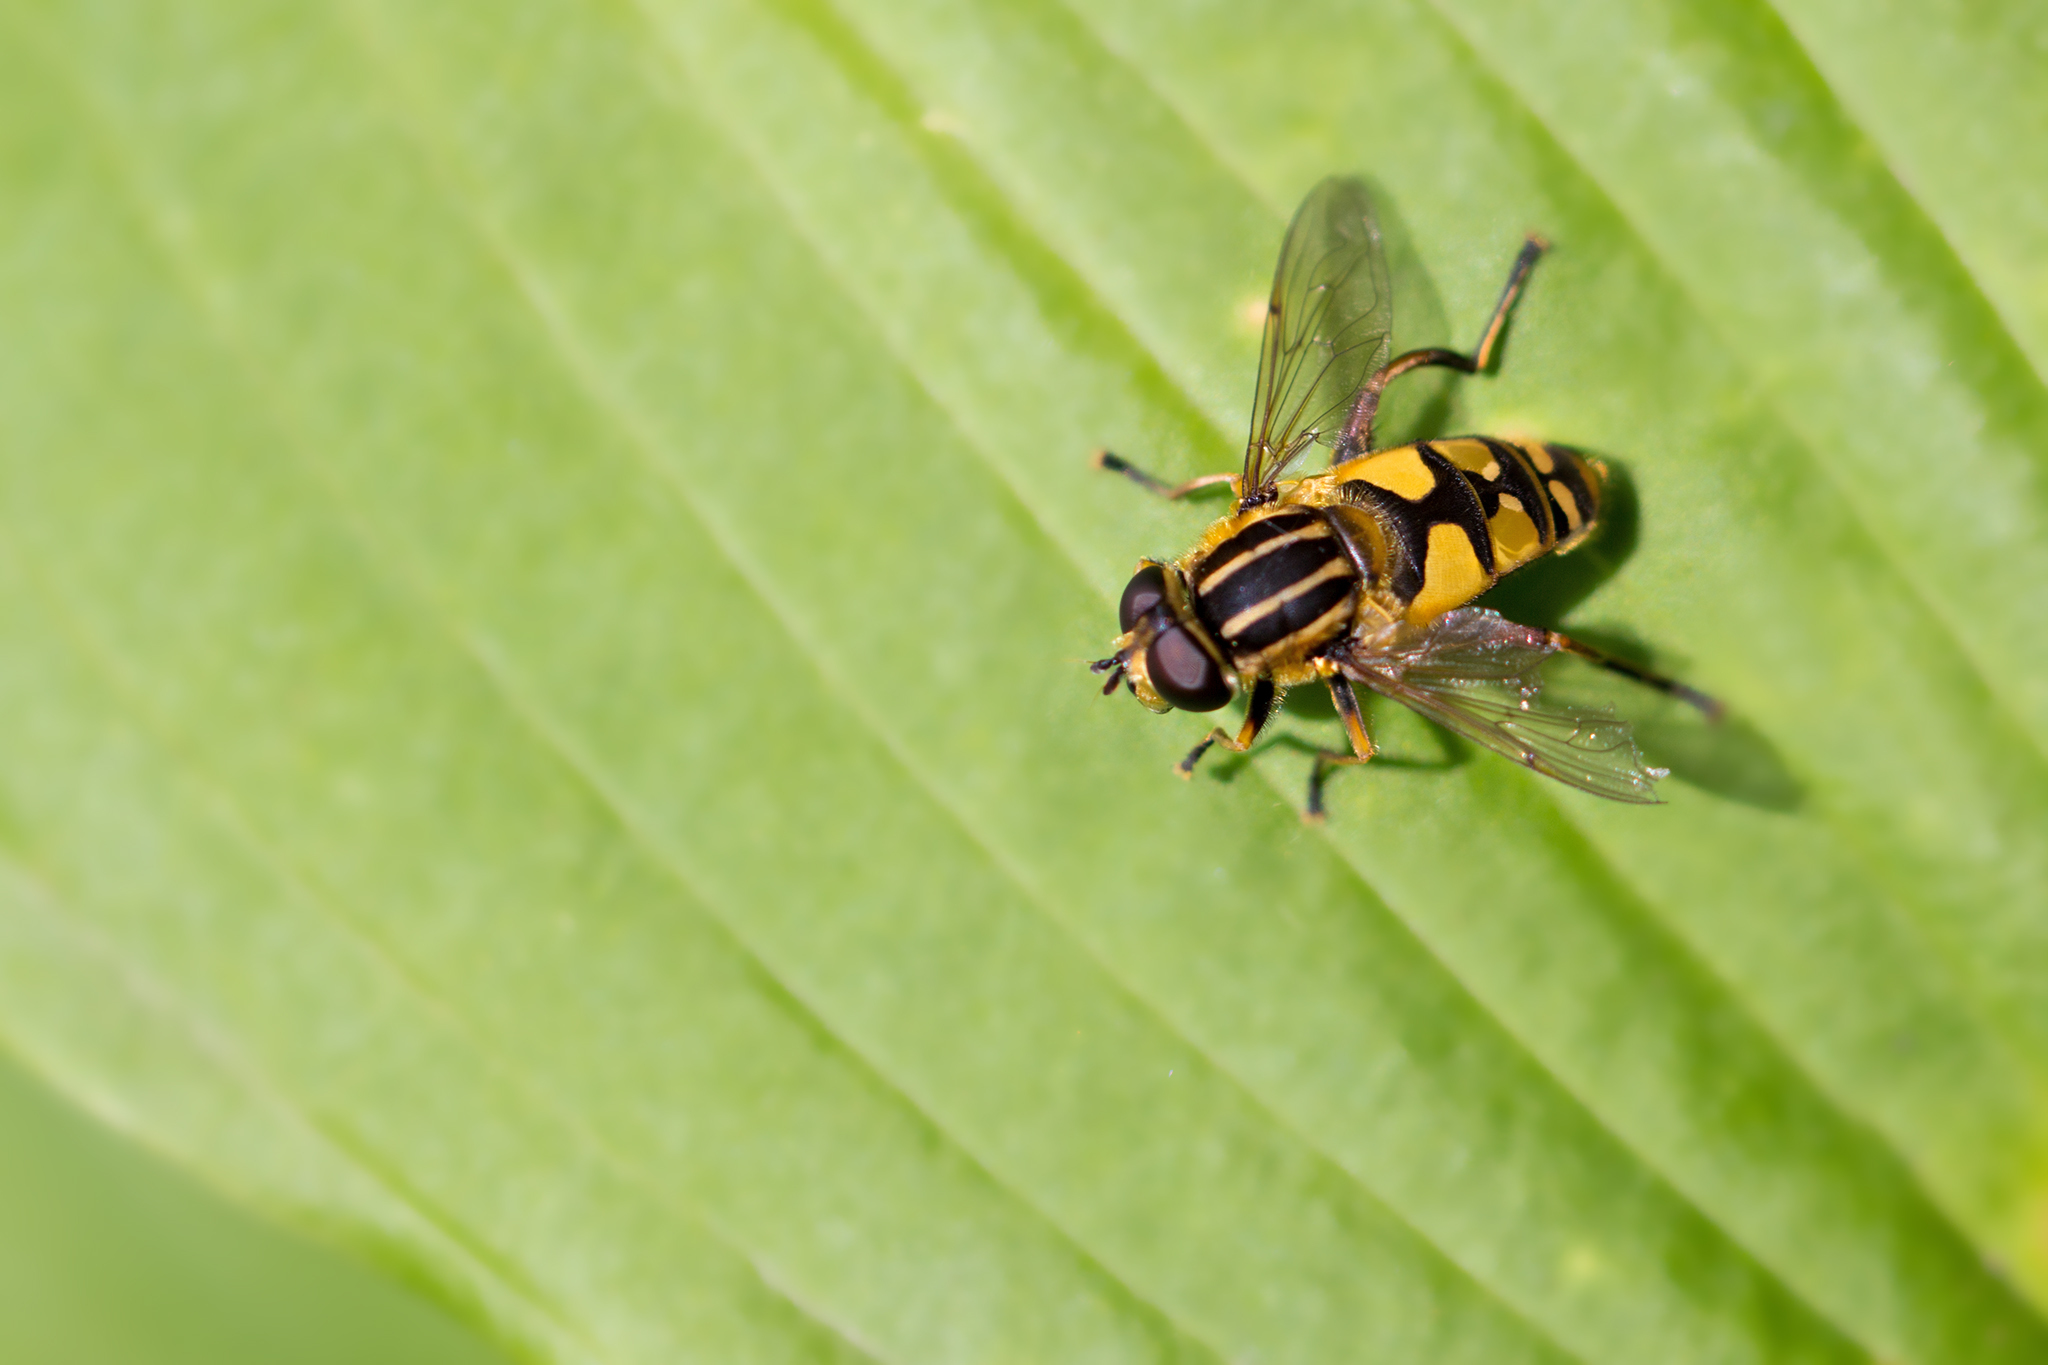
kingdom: Animalia
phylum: Arthropoda
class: Insecta
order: Diptera
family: Syrphidae
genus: Helophilus
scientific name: Helophilus pendulus
